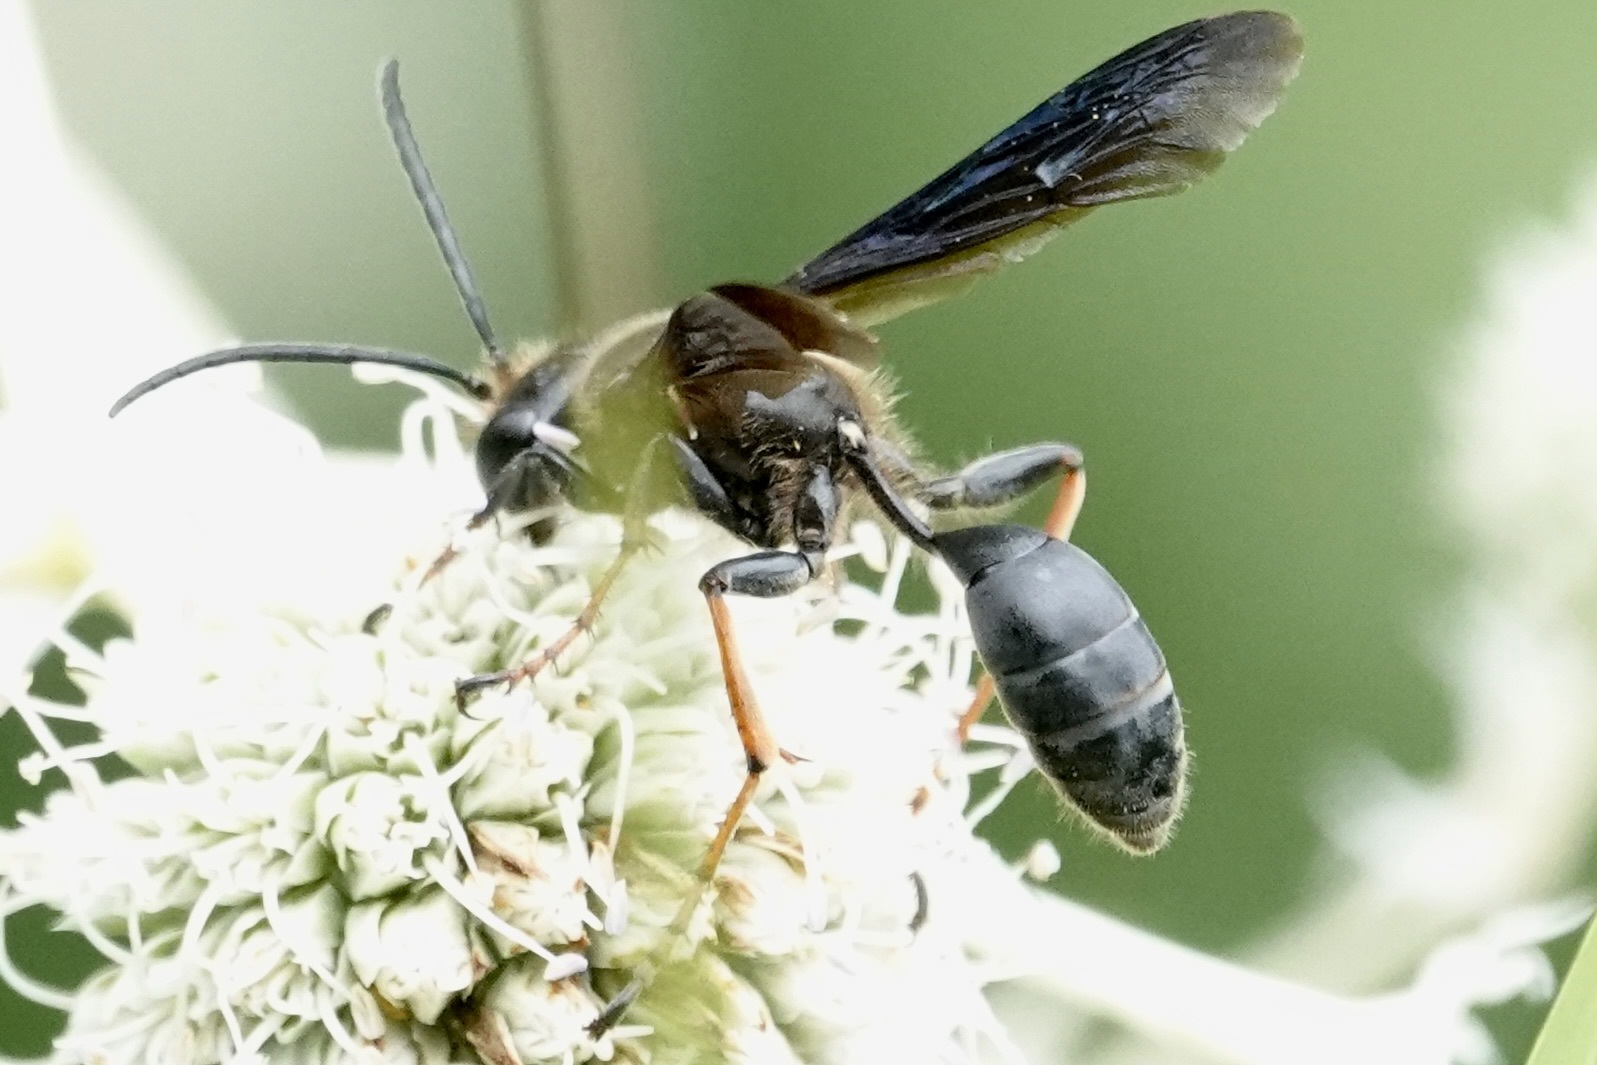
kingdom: Animalia
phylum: Arthropoda
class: Insecta
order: Hymenoptera
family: Sphecidae
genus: Isodontia
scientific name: Isodontia auripes
